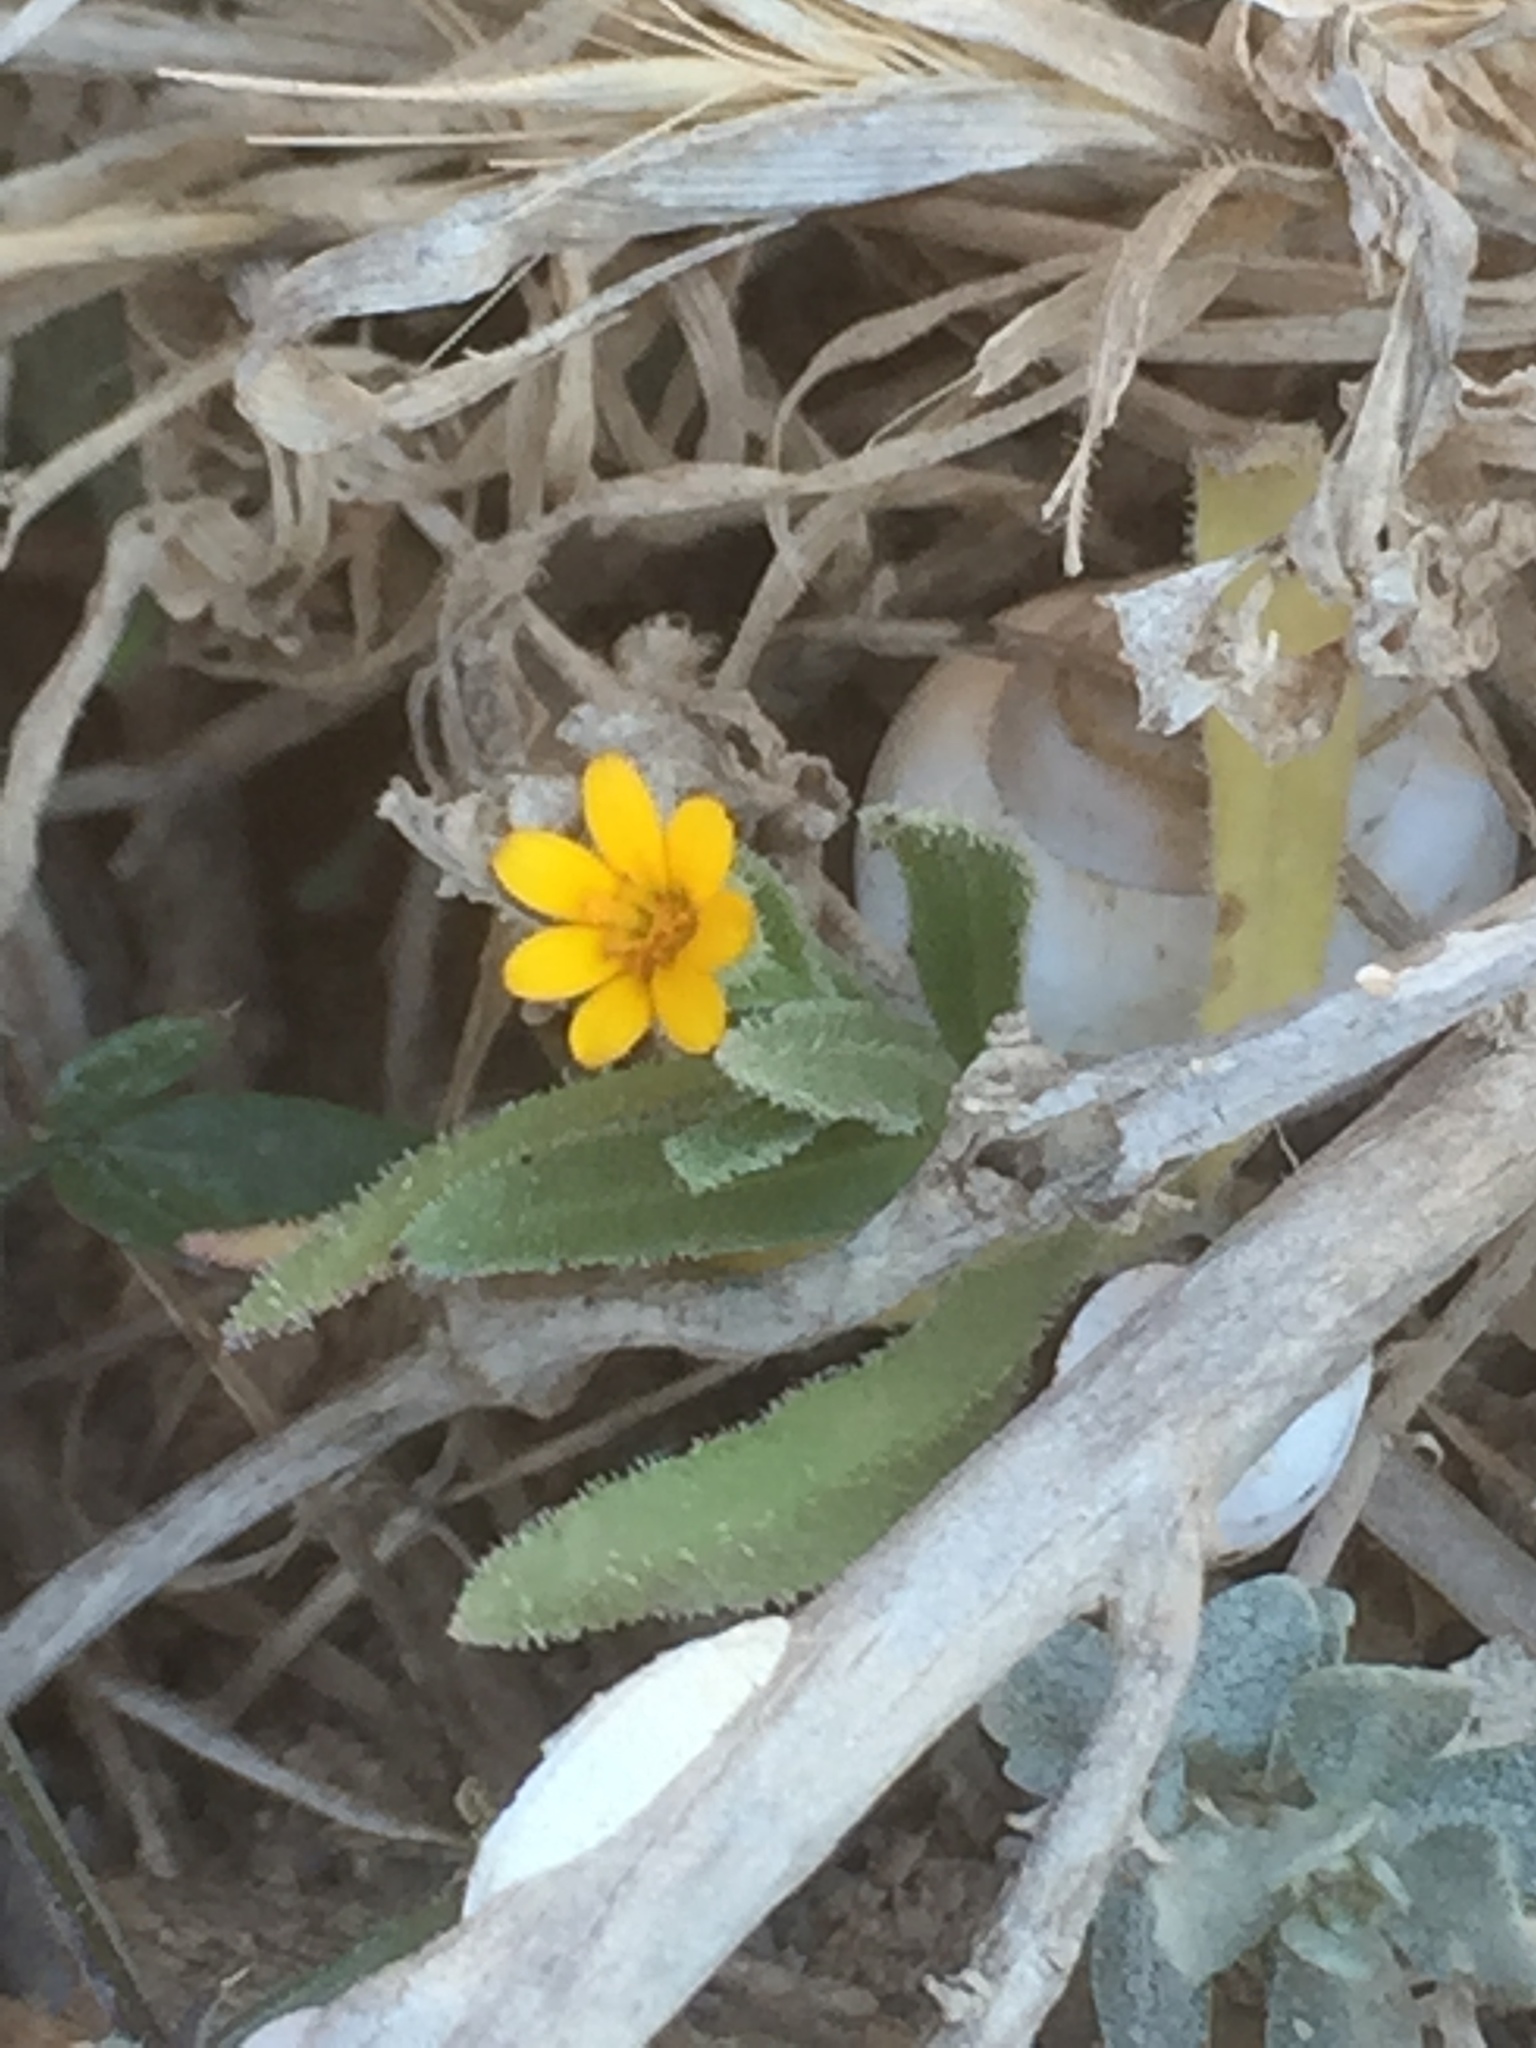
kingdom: Plantae
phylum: Tracheophyta
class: Magnoliopsida
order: Asterales
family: Asteraceae
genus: Calendula
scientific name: Calendula arvensis
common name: Field marigold
